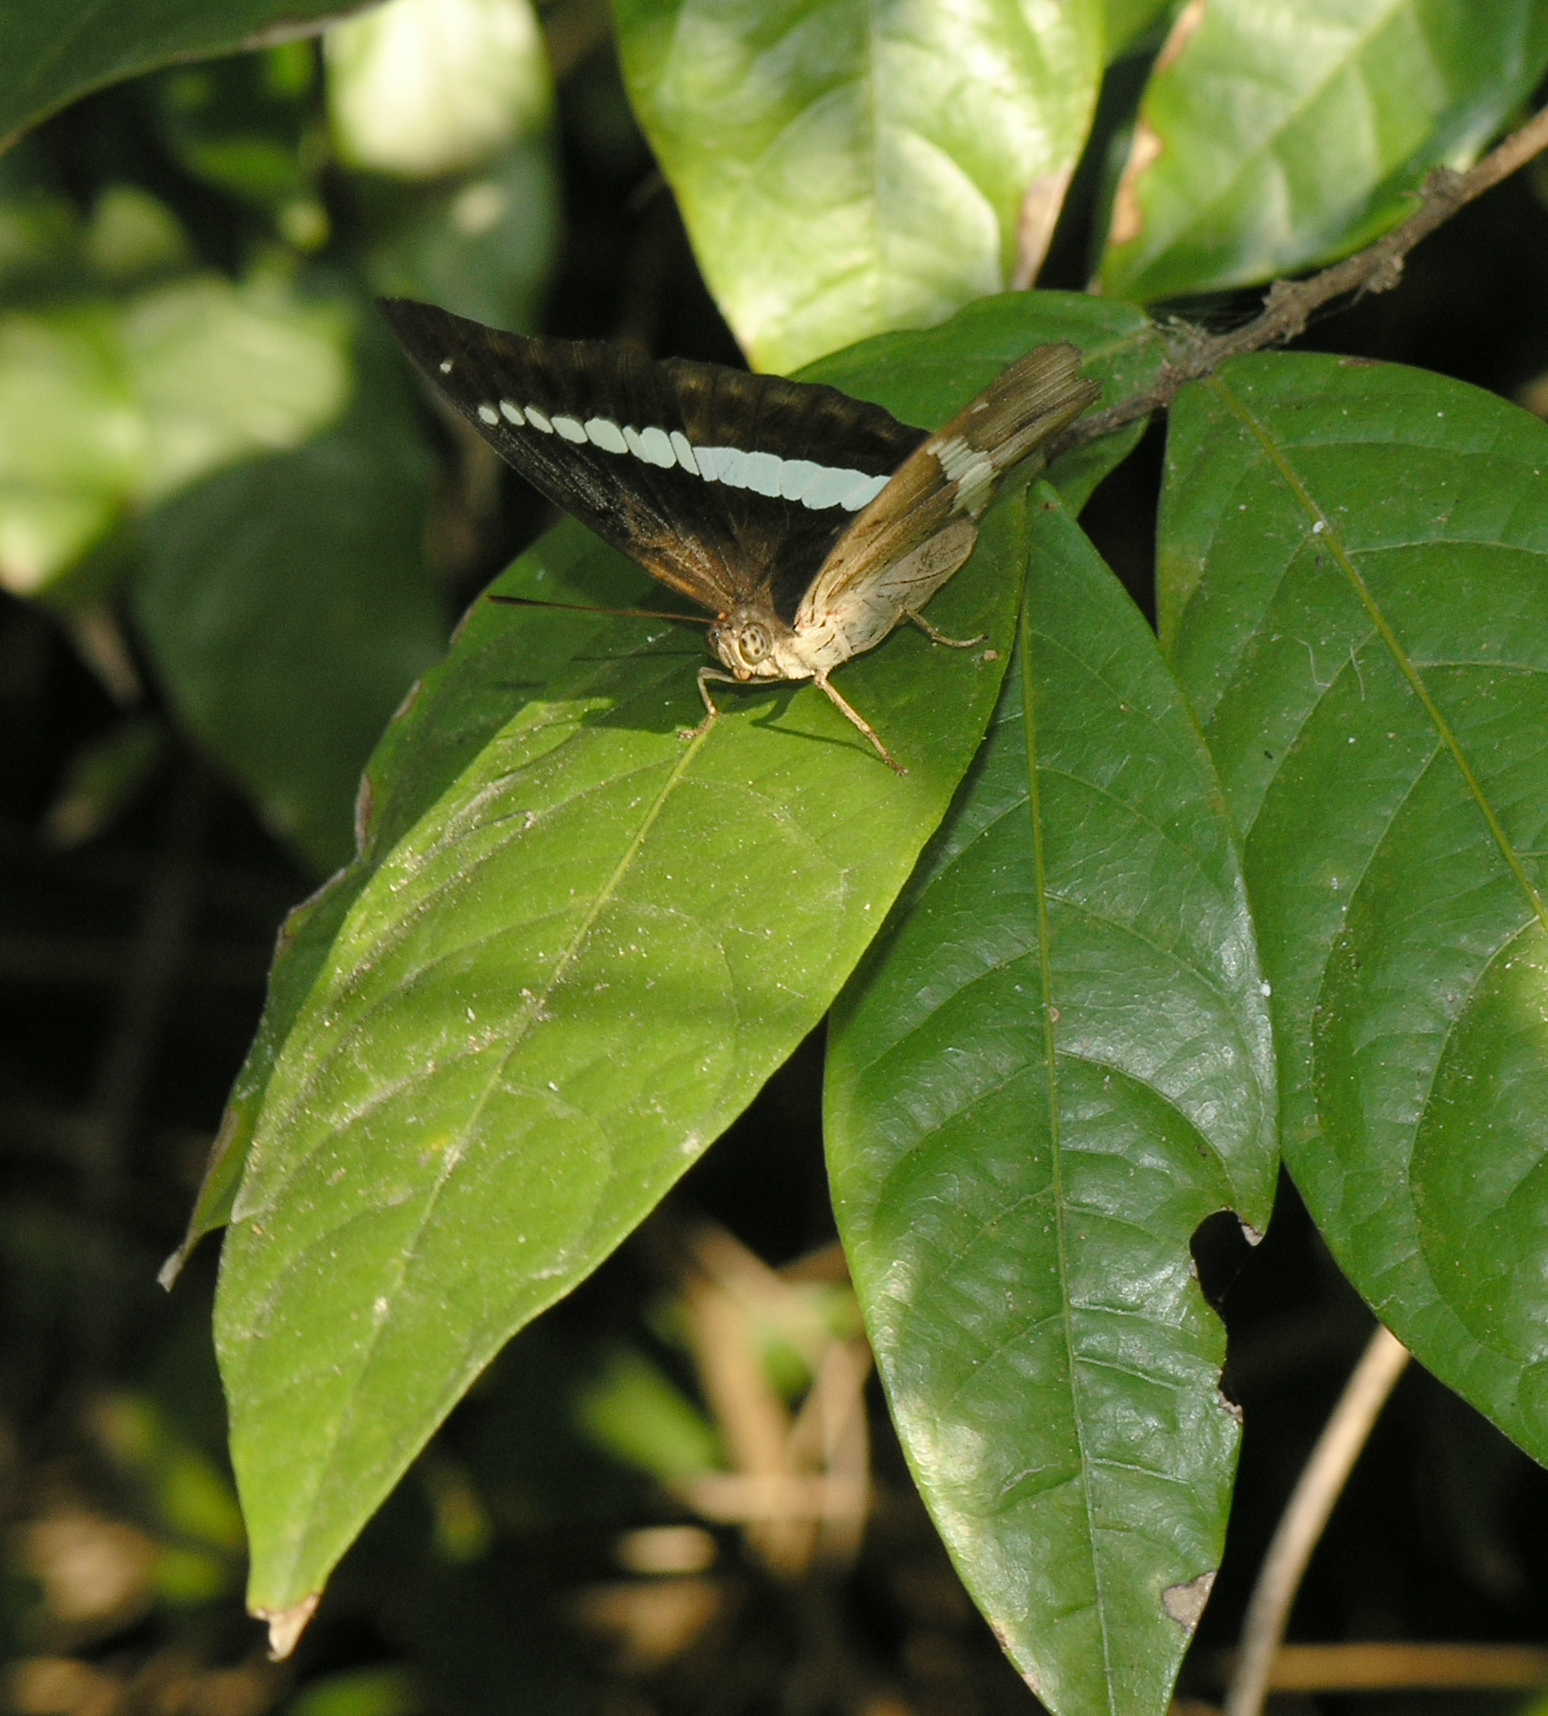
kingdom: Animalia
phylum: Arthropoda
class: Insecta
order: Lepidoptera
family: Nymphalidae
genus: Euthalia
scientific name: Euthalia recta
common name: Redtail marquis
